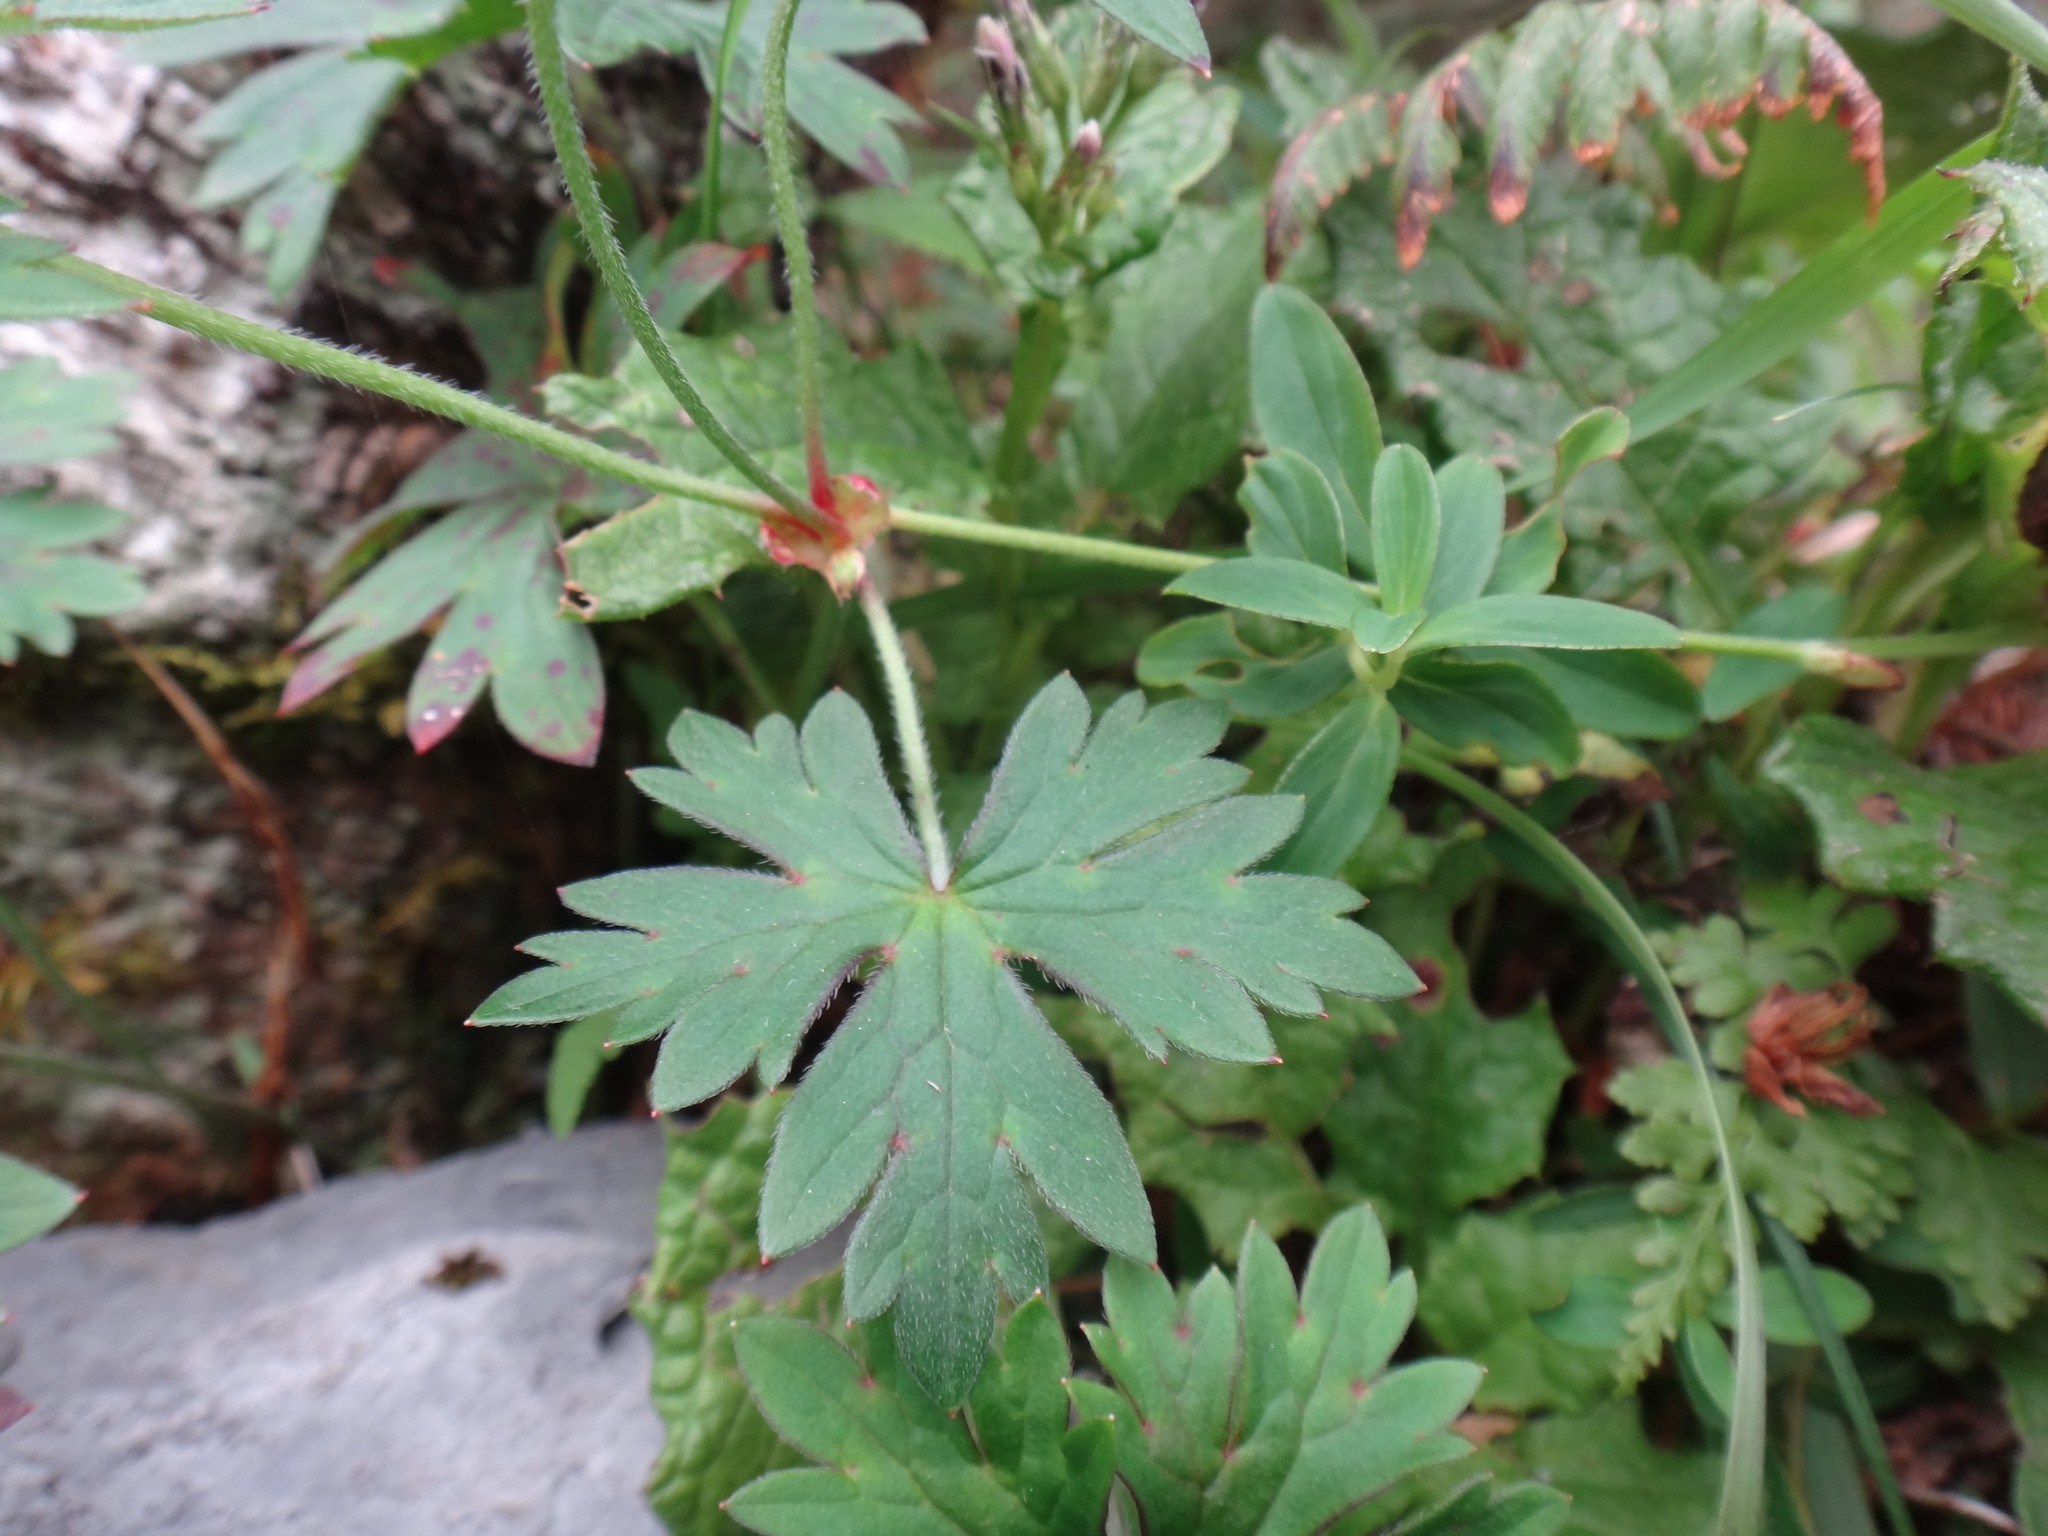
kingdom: Plantae
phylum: Tracheophyta
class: Magnoliopsida
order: Geraniales
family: Geraniaceae
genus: Geranium
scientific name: Geranium hayatanum
